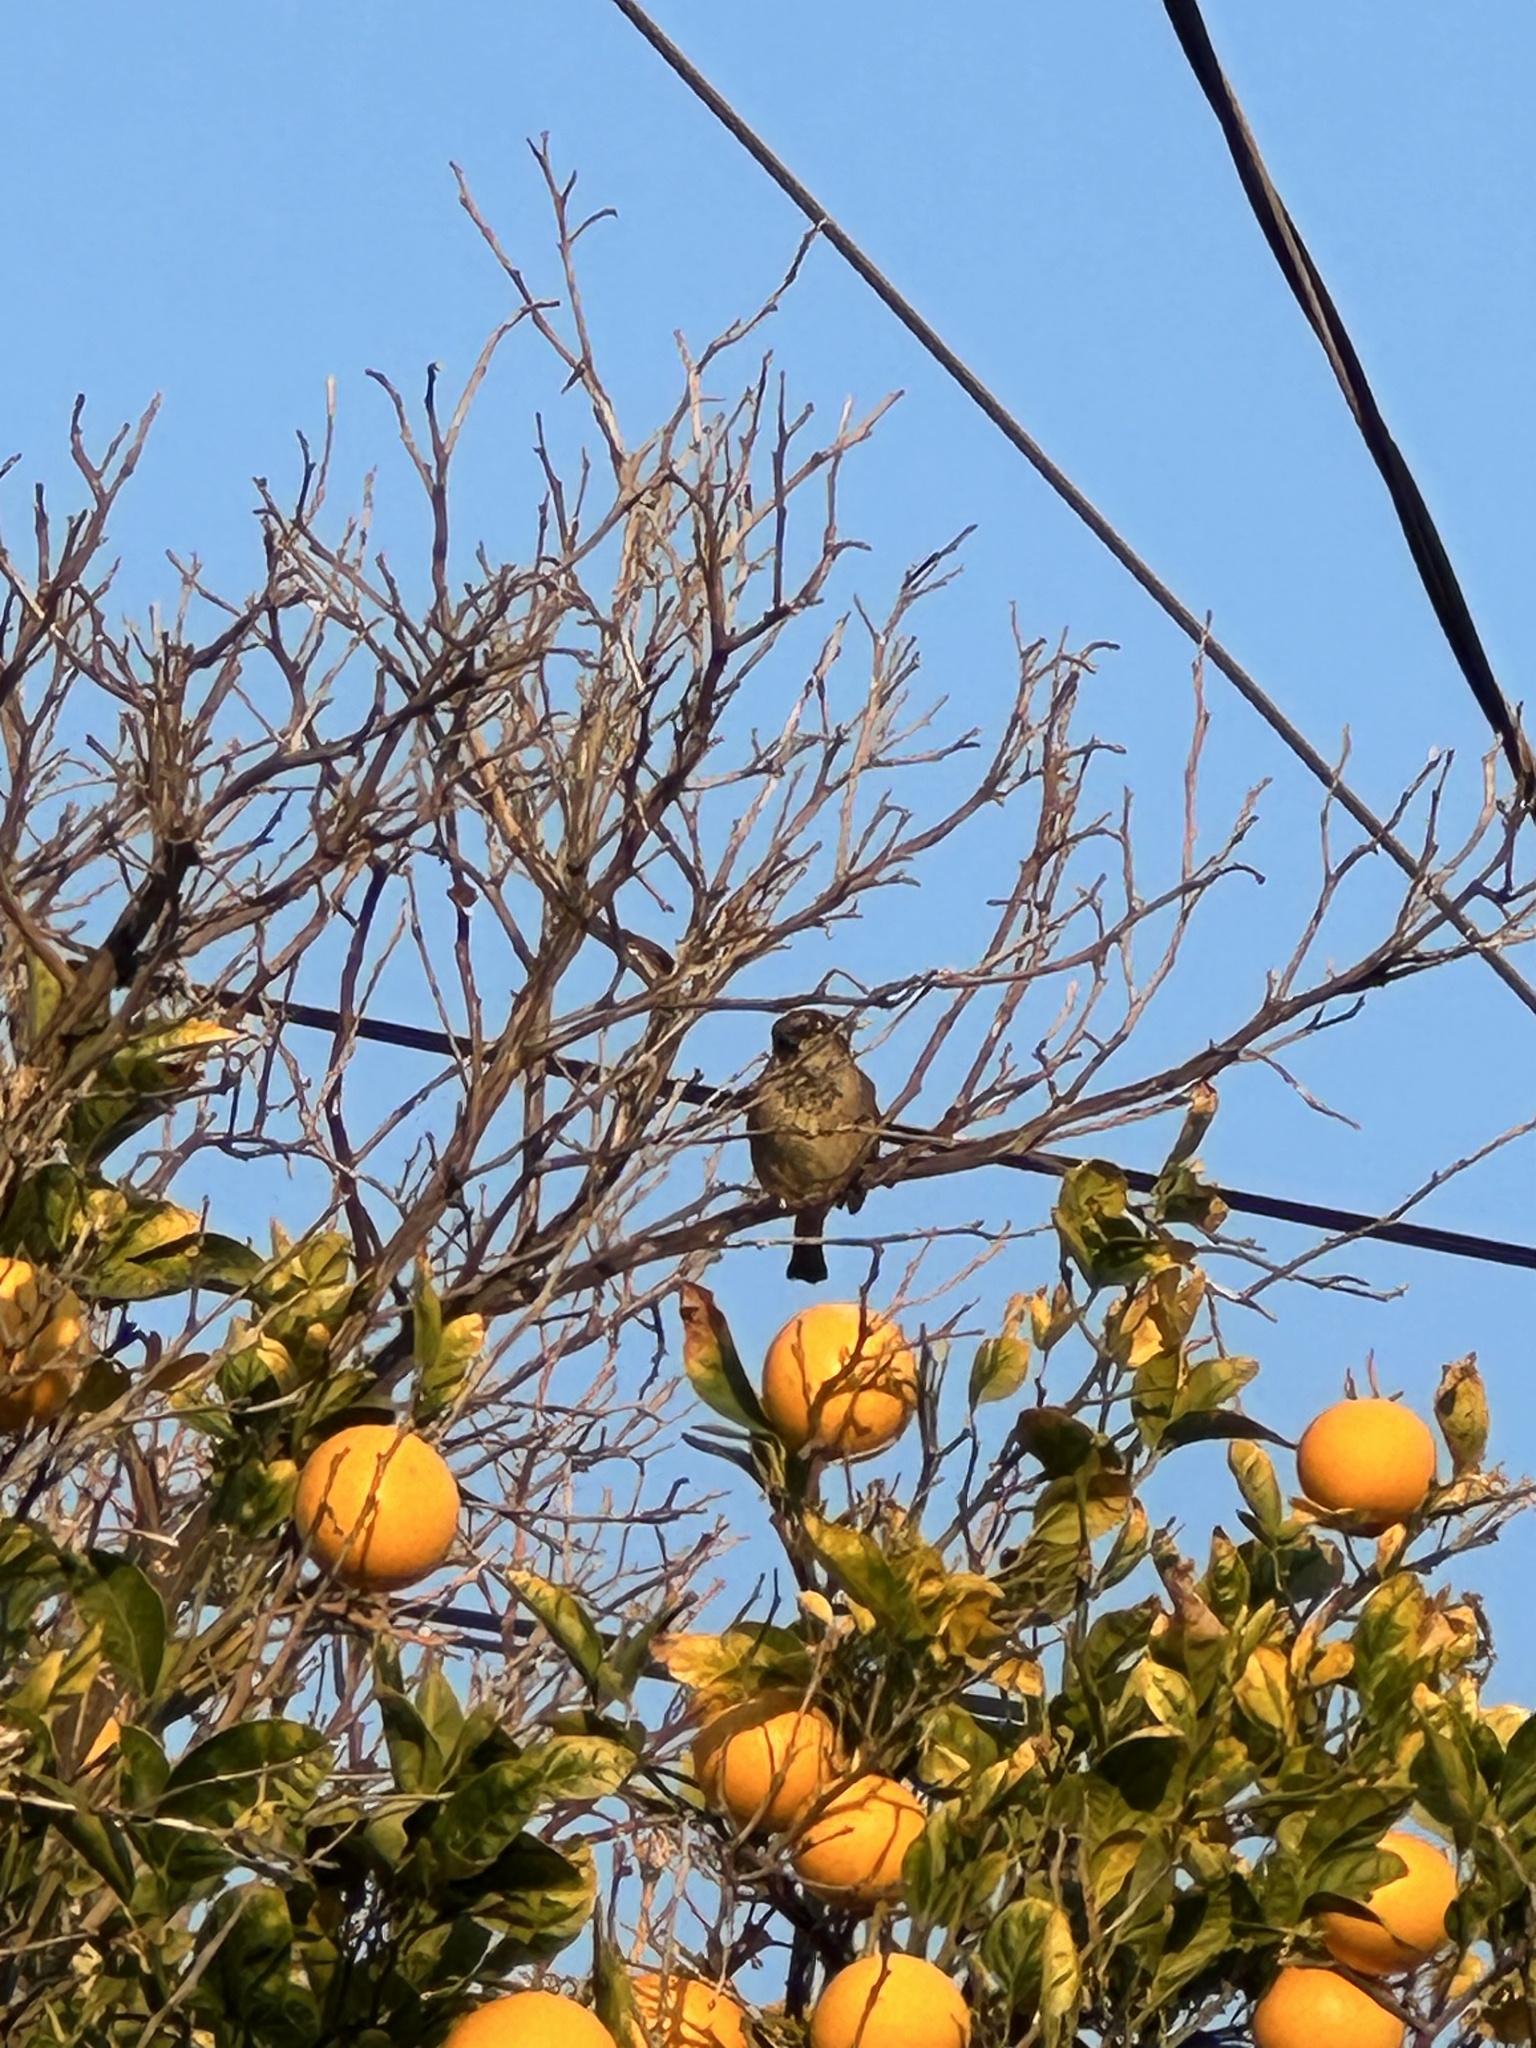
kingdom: Animalia
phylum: Chordata
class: Aves
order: Passeriformes
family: Passeridae
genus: Passer
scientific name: Passer domesticus
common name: House sparrow
